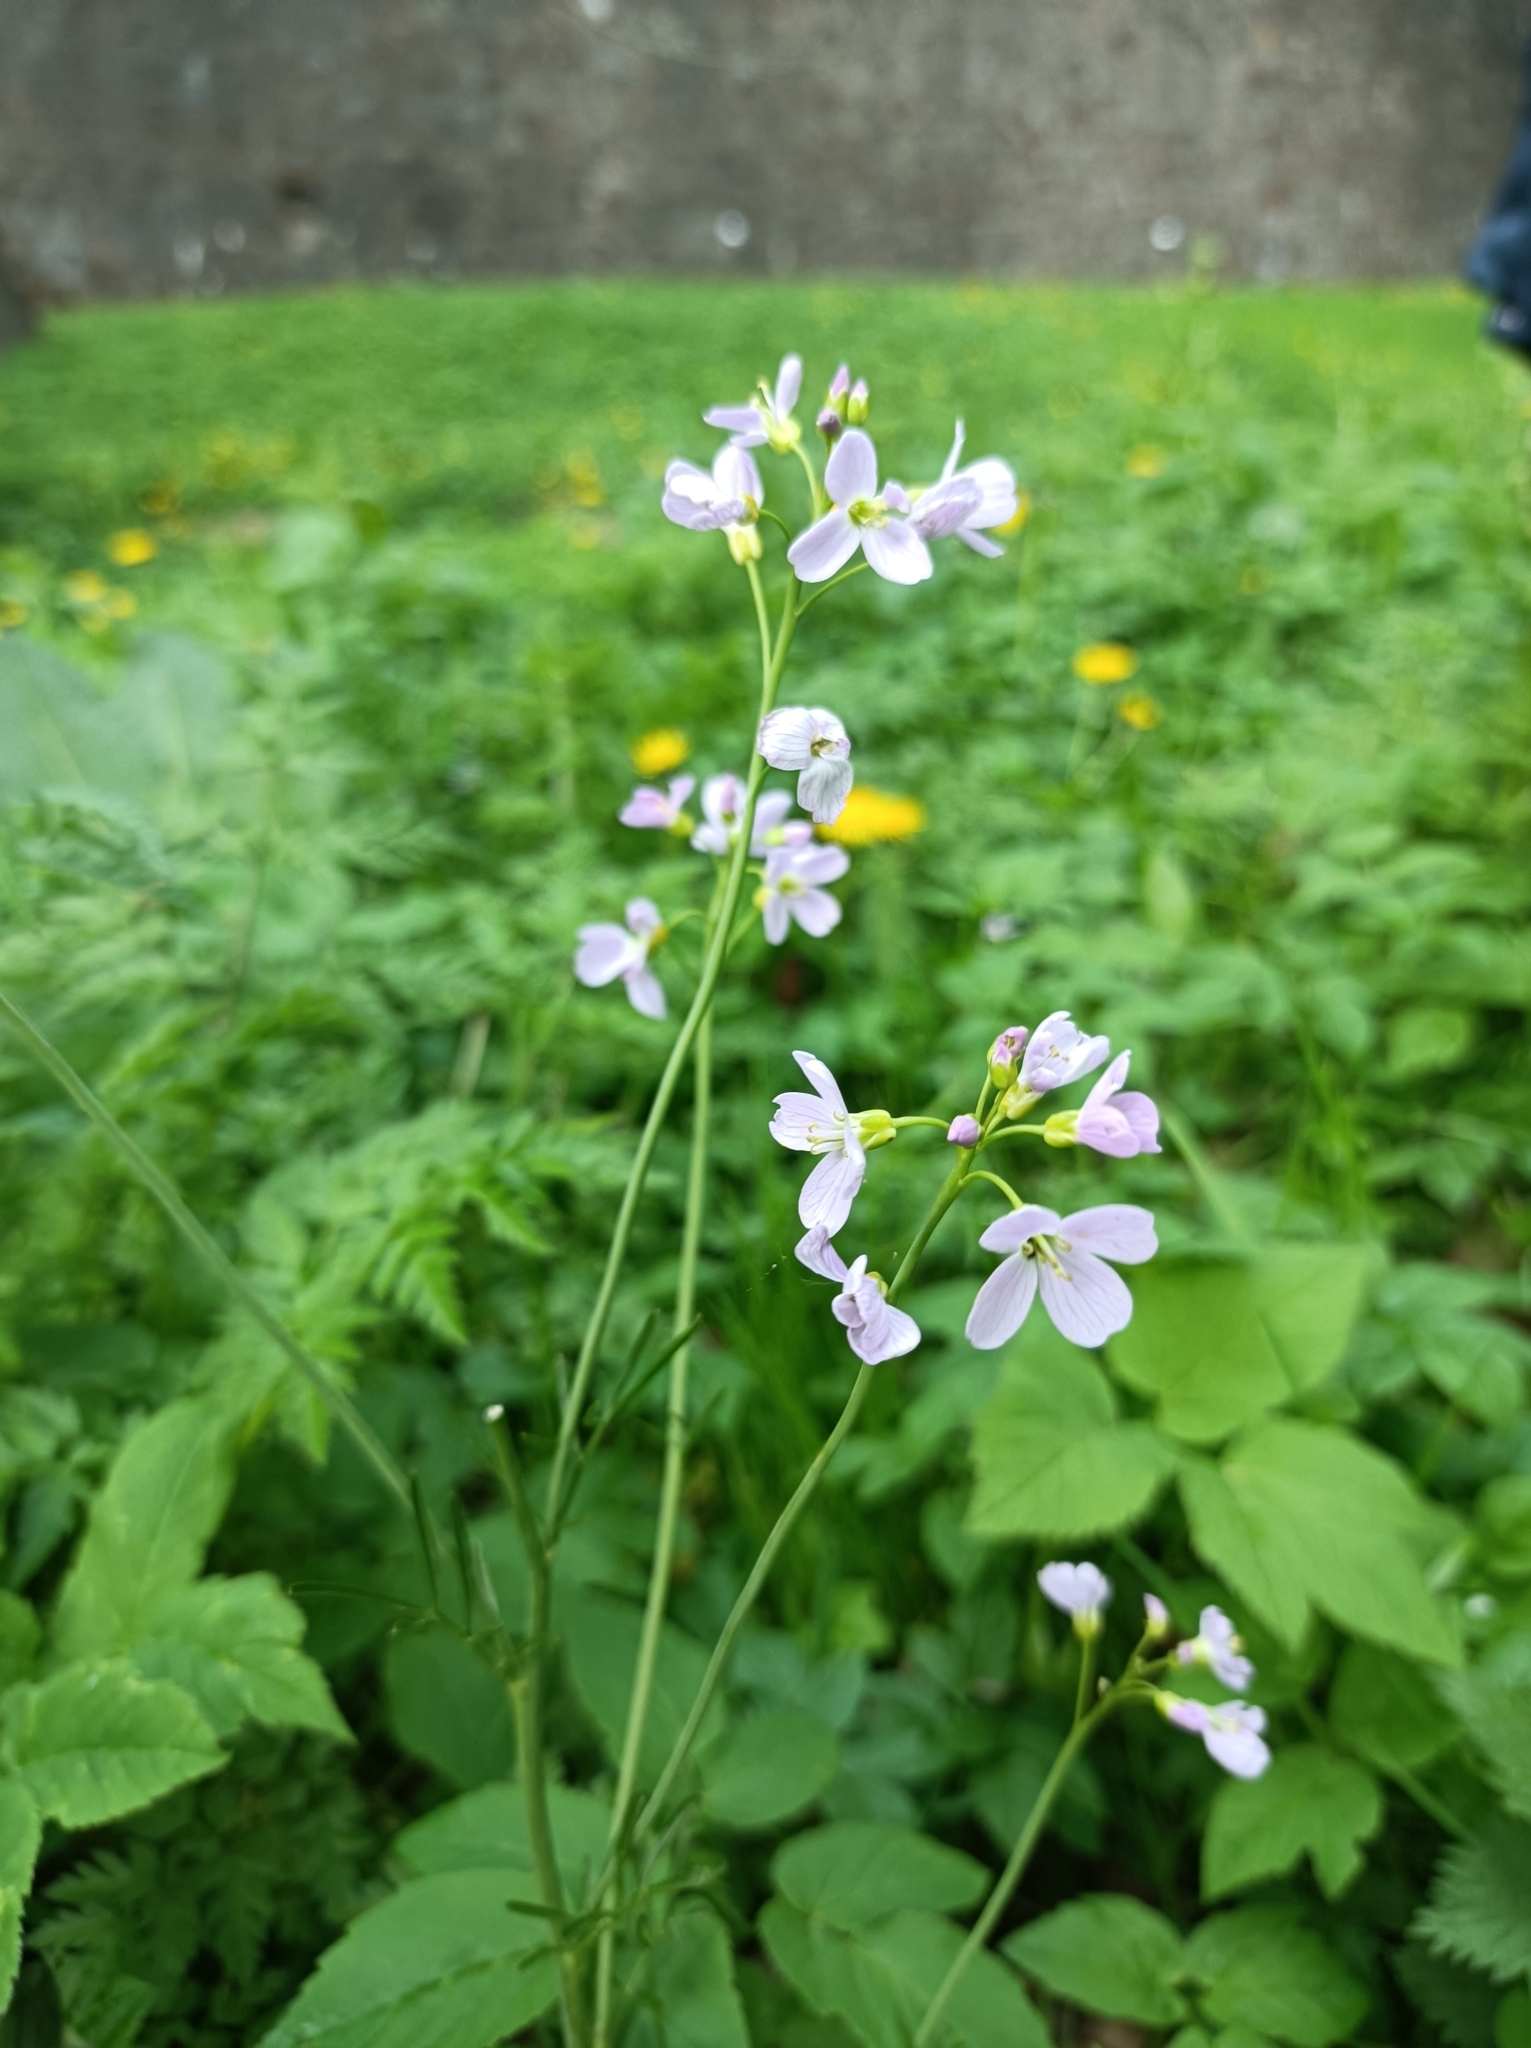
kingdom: Plantae
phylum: Tracheophyta
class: Magnoliopsida
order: Brassicales
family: Brassicaceae
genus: Cardamine
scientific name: Cardamine pratensis
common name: Cuckoo flower
